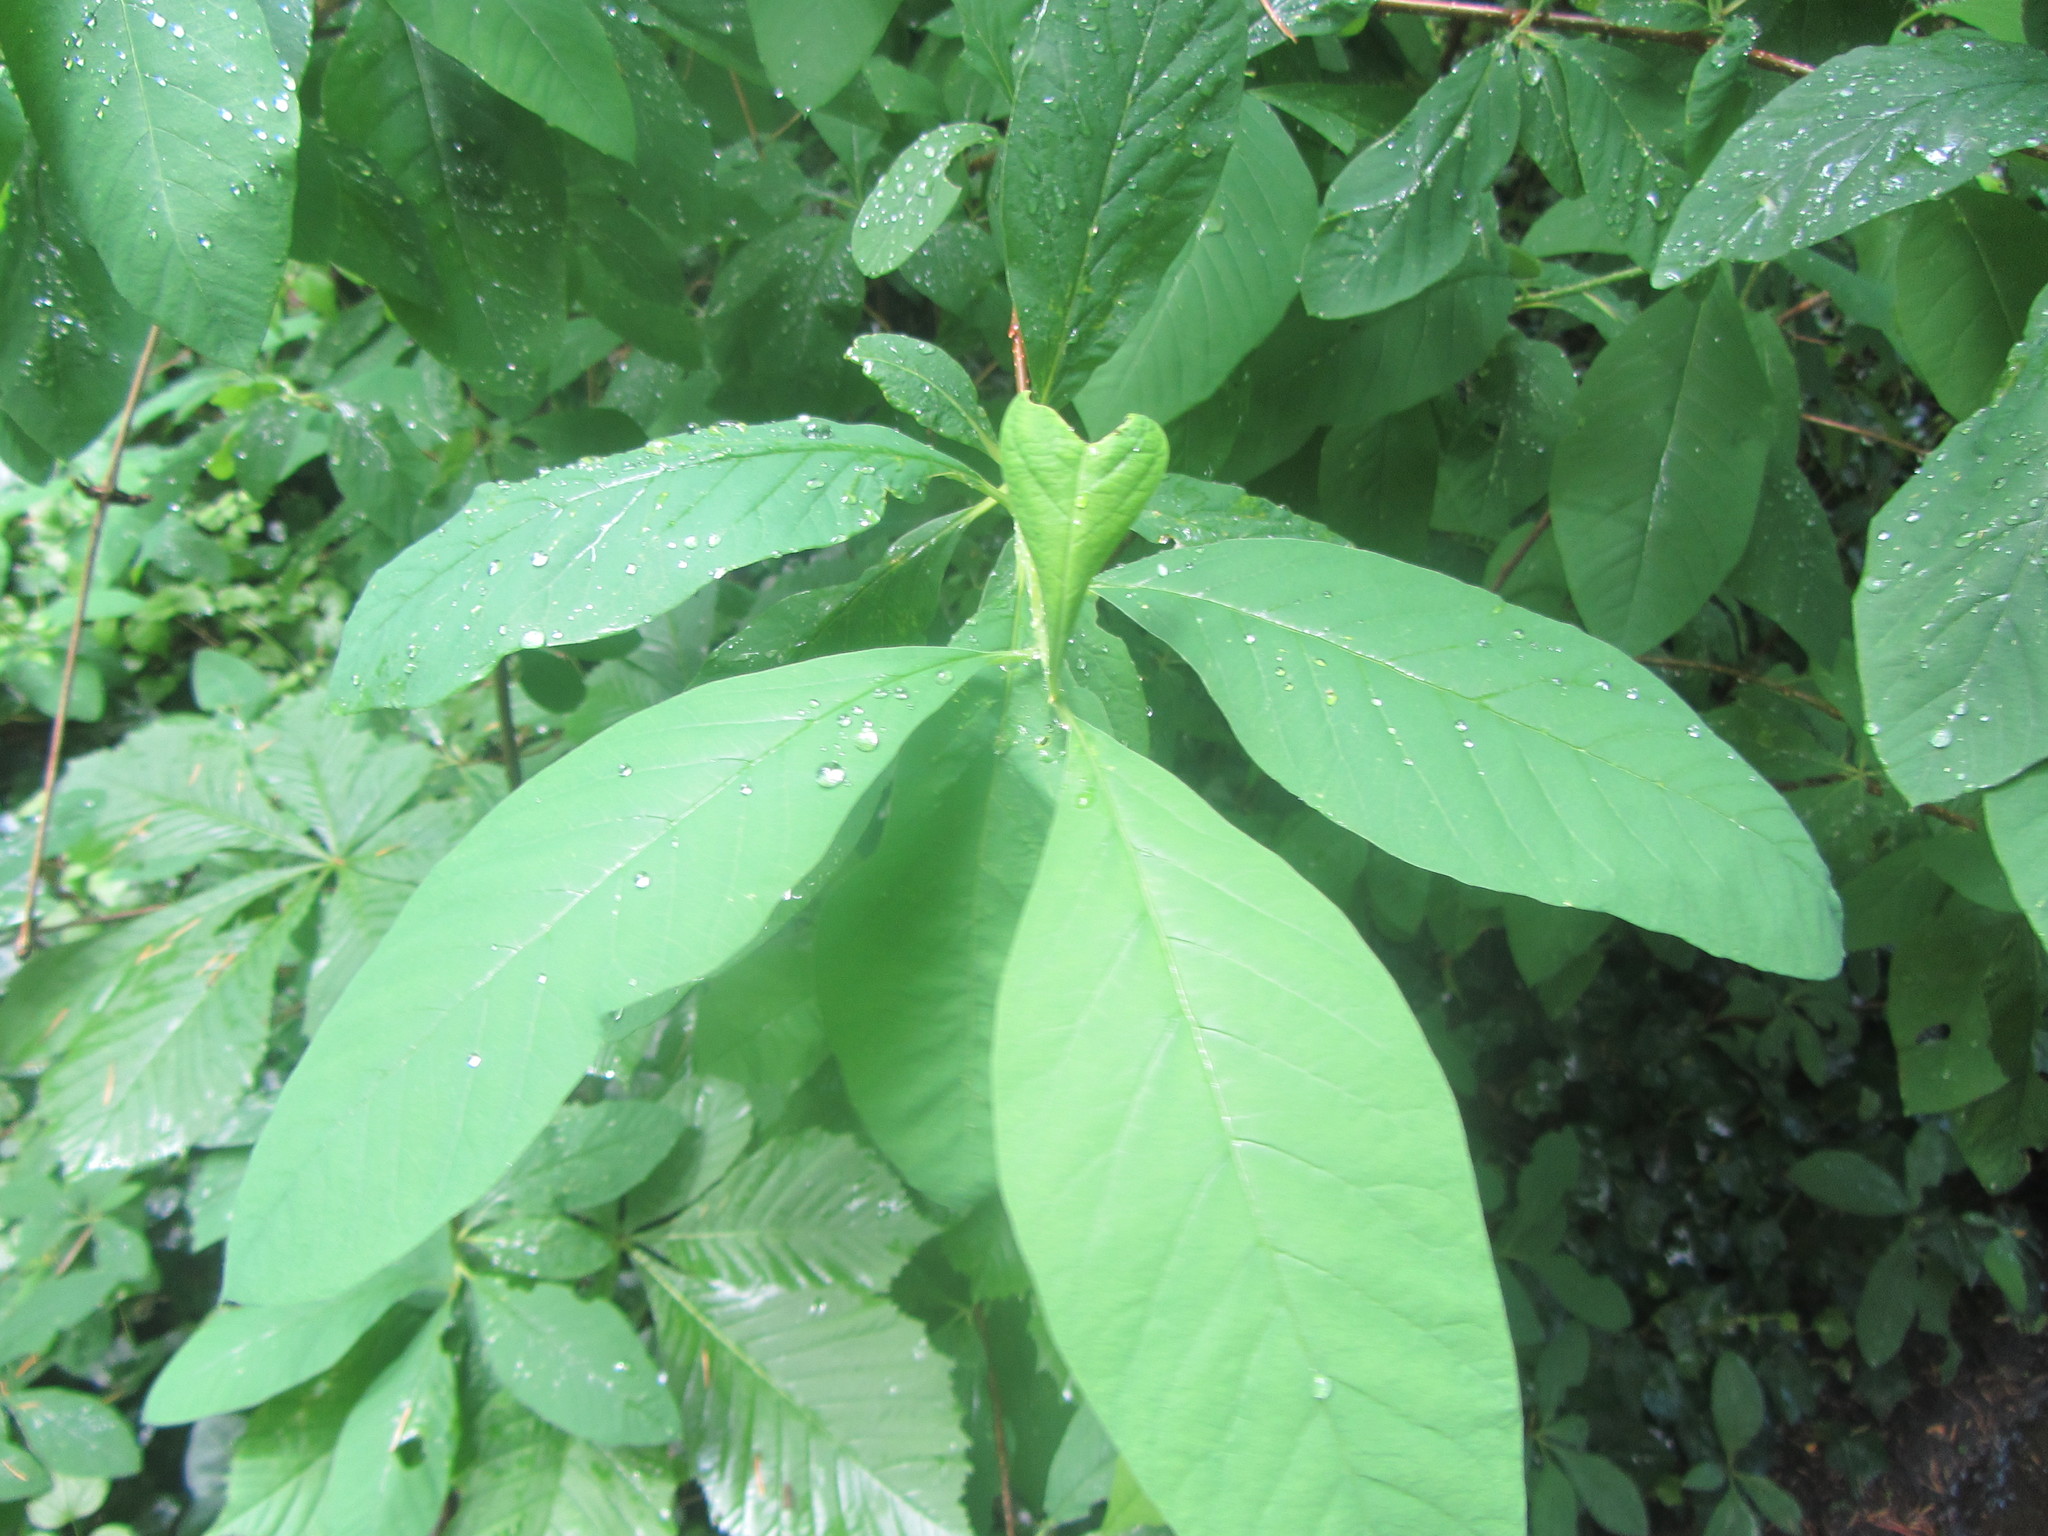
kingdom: Plantae
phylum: Tracheophyta
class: Magnoliopsida
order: Rosales
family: Rosaceae
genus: Oemleria
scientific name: Oemleria cerasiformis
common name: Osoberry
